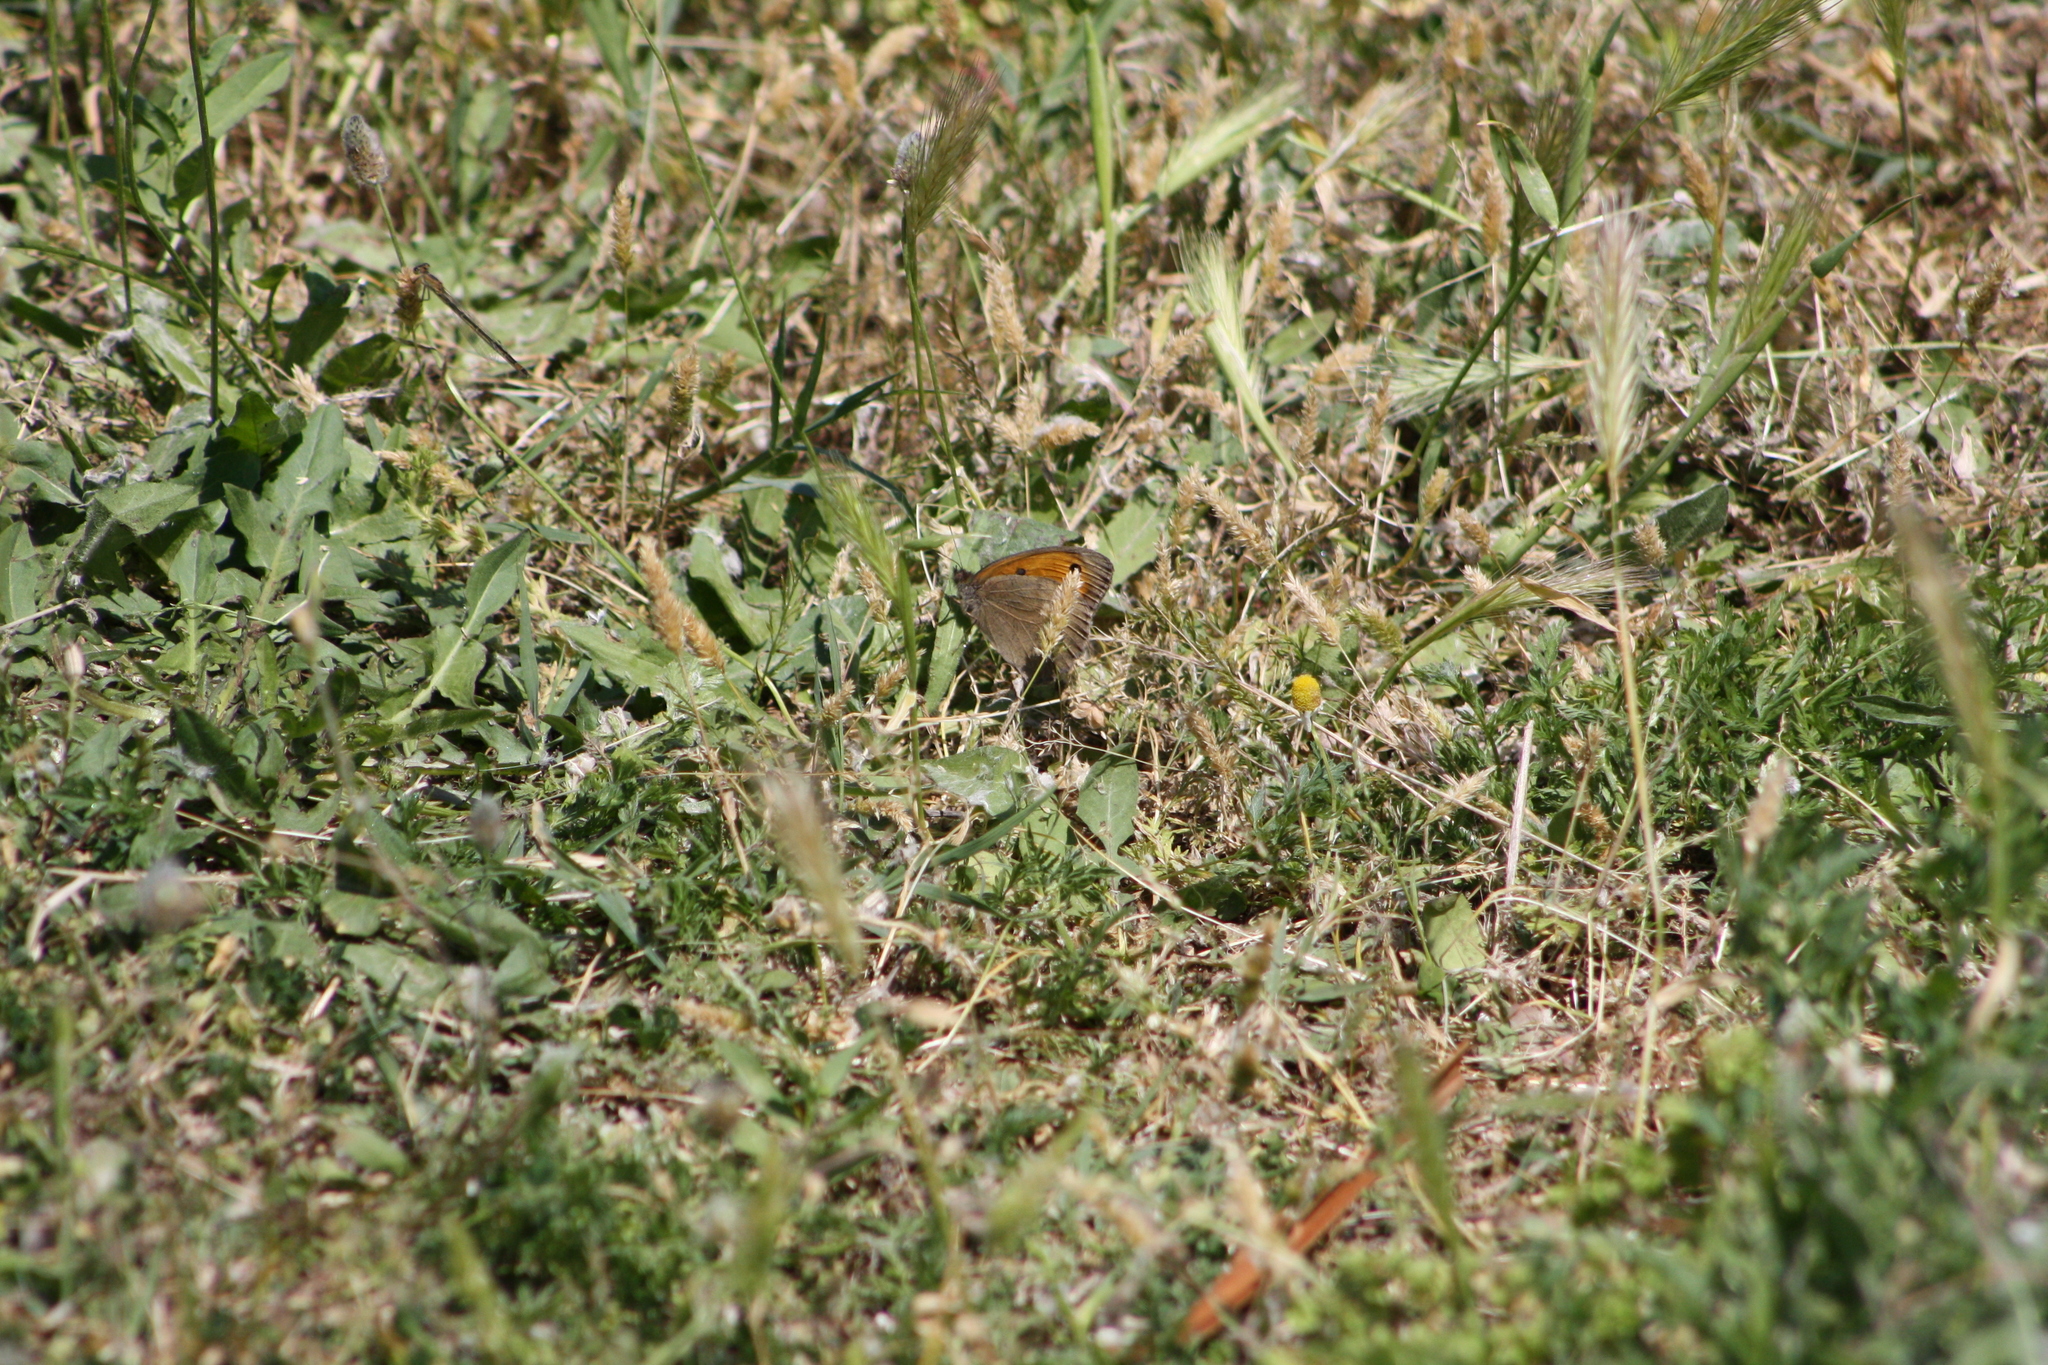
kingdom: Animalia
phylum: Arthropoda
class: Insecta
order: Lepidoptera
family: Nymphalidae
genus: Maniola
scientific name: Maniola jurtina
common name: Meadow brown
